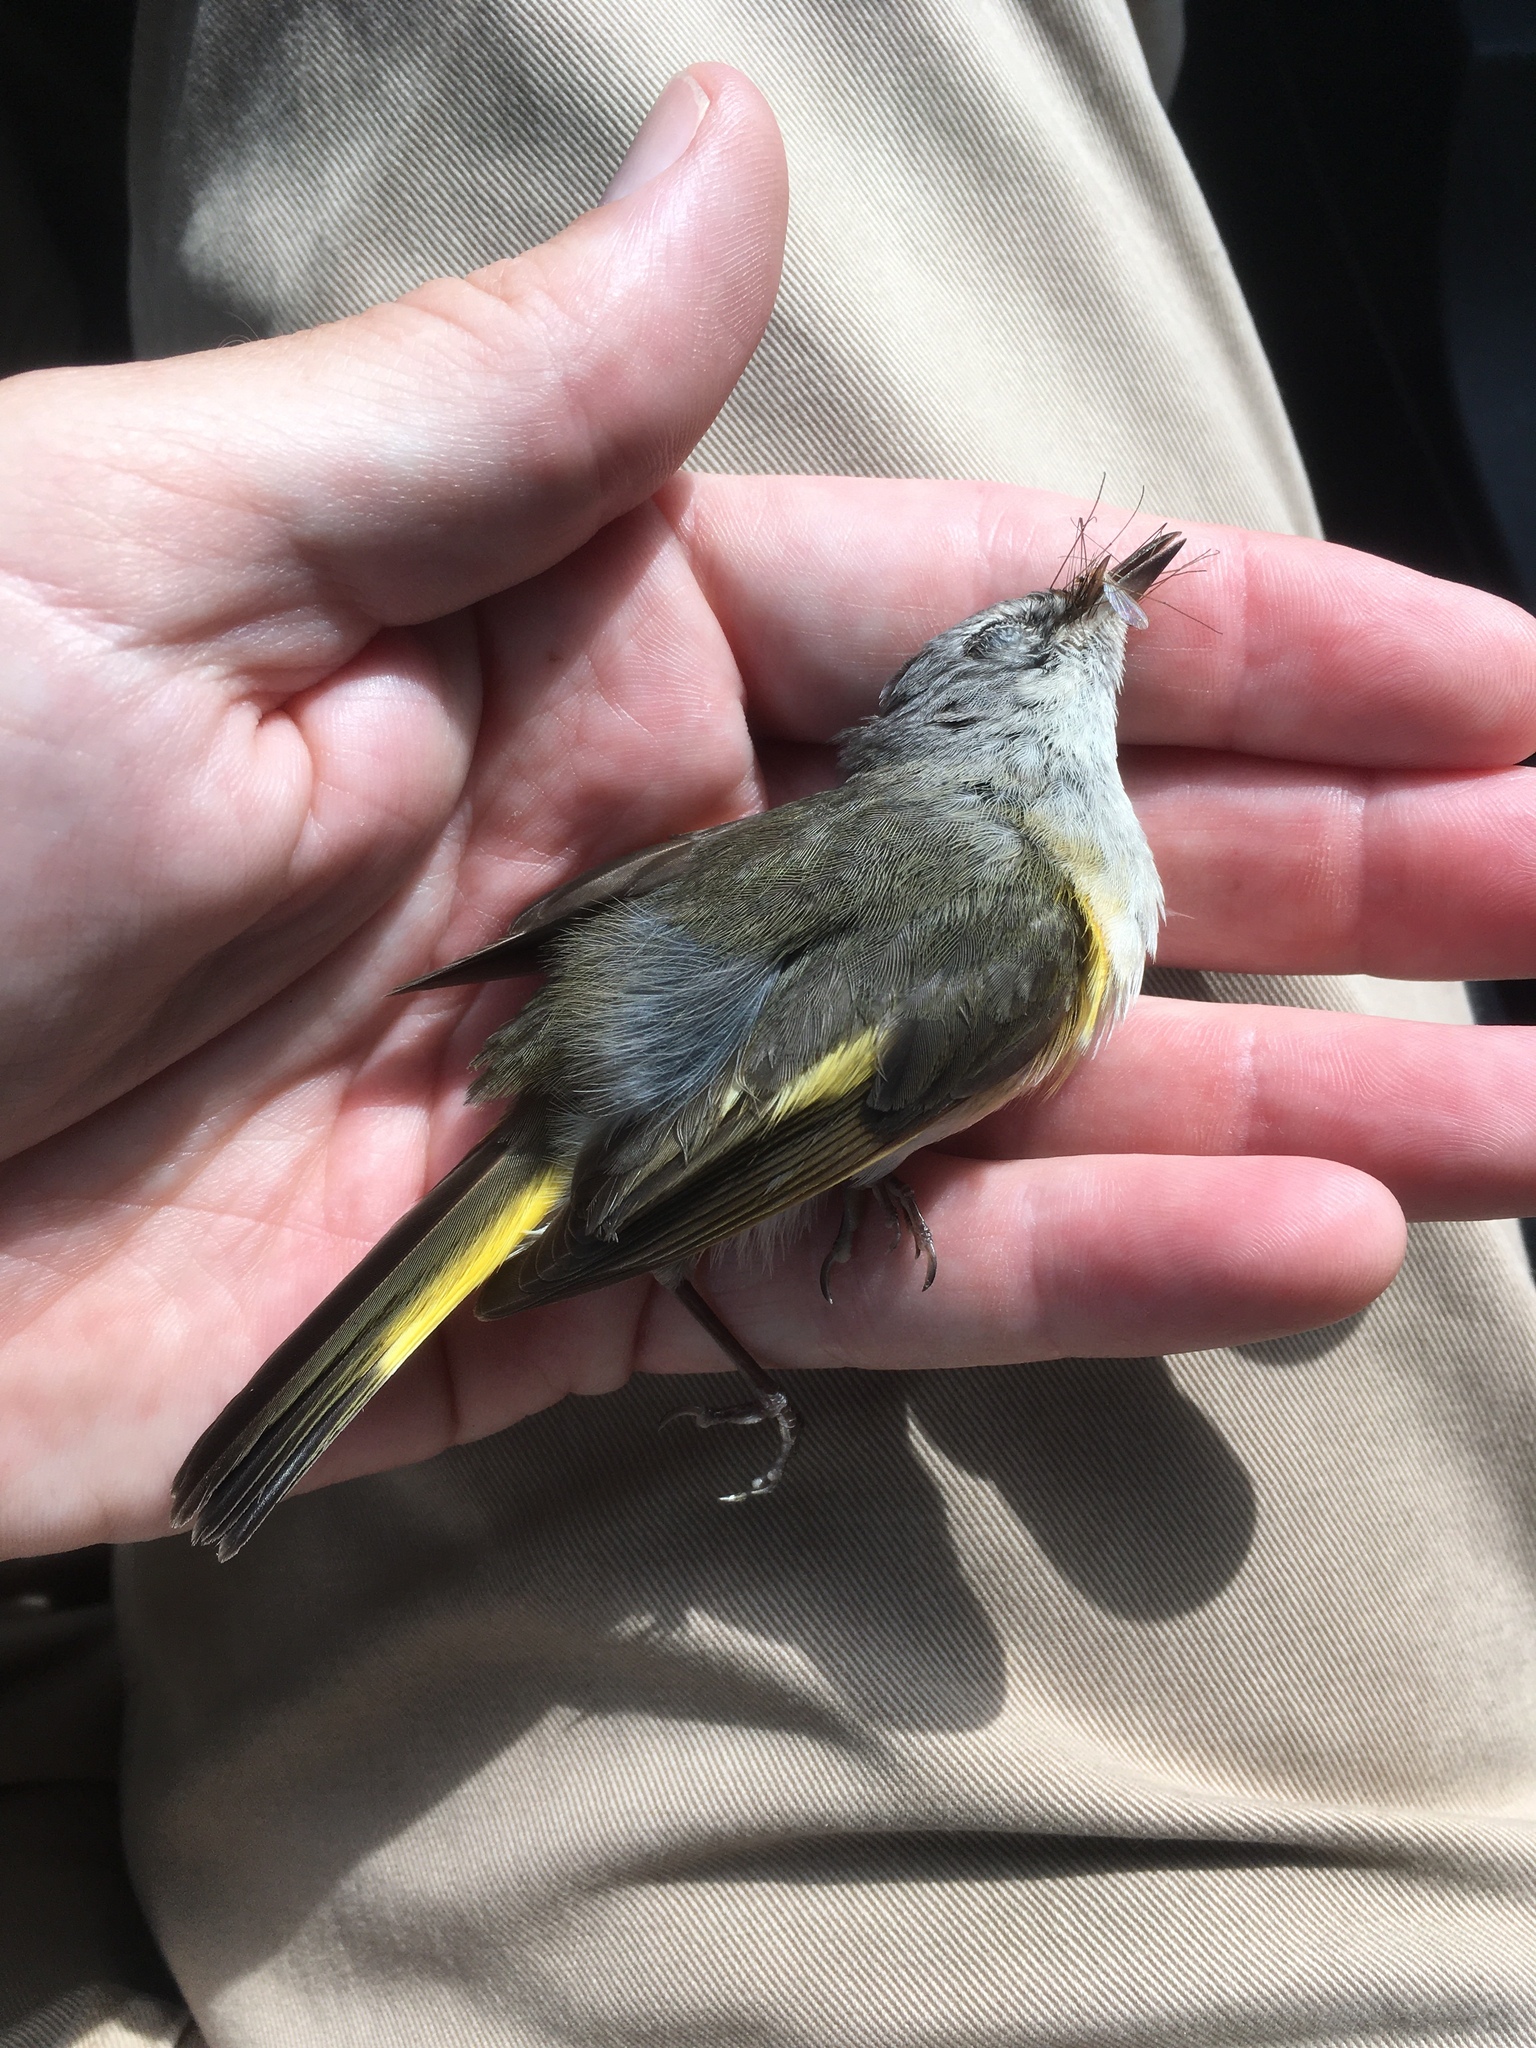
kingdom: Animalia
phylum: Chordata
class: Aves
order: Passeriformes
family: Parulidae
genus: Setophaga
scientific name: Setophaga ruticilla
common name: American redstart
